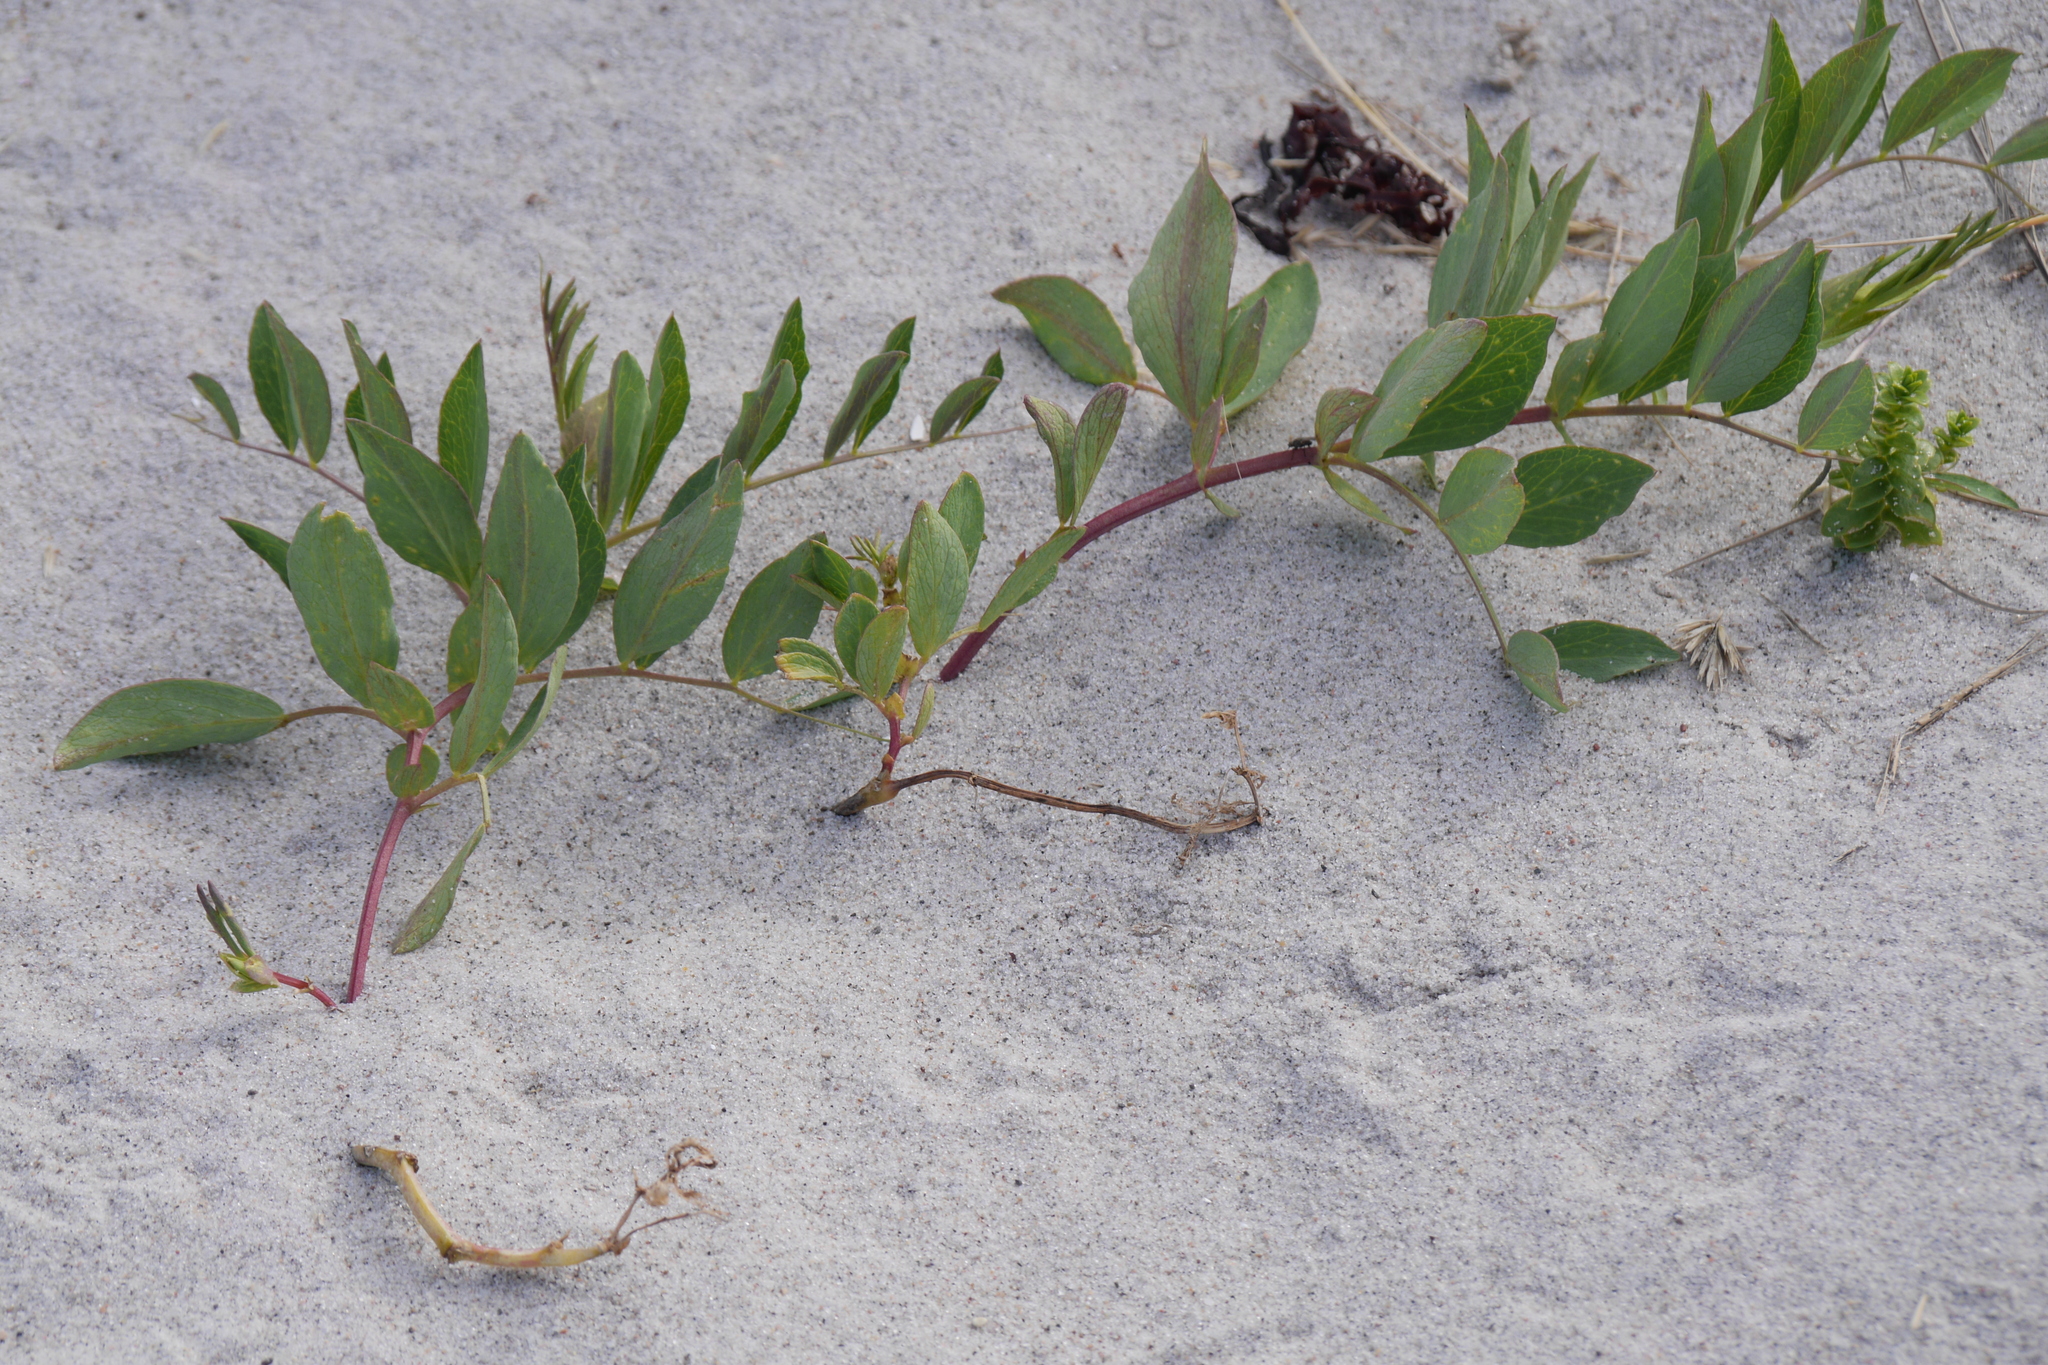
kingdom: Plantae
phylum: Tracheophyta
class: Magnoliopsida
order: Fabales
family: Fabaceae
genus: Lathyrus
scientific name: Lathyrus japonicus
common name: Sea pea
